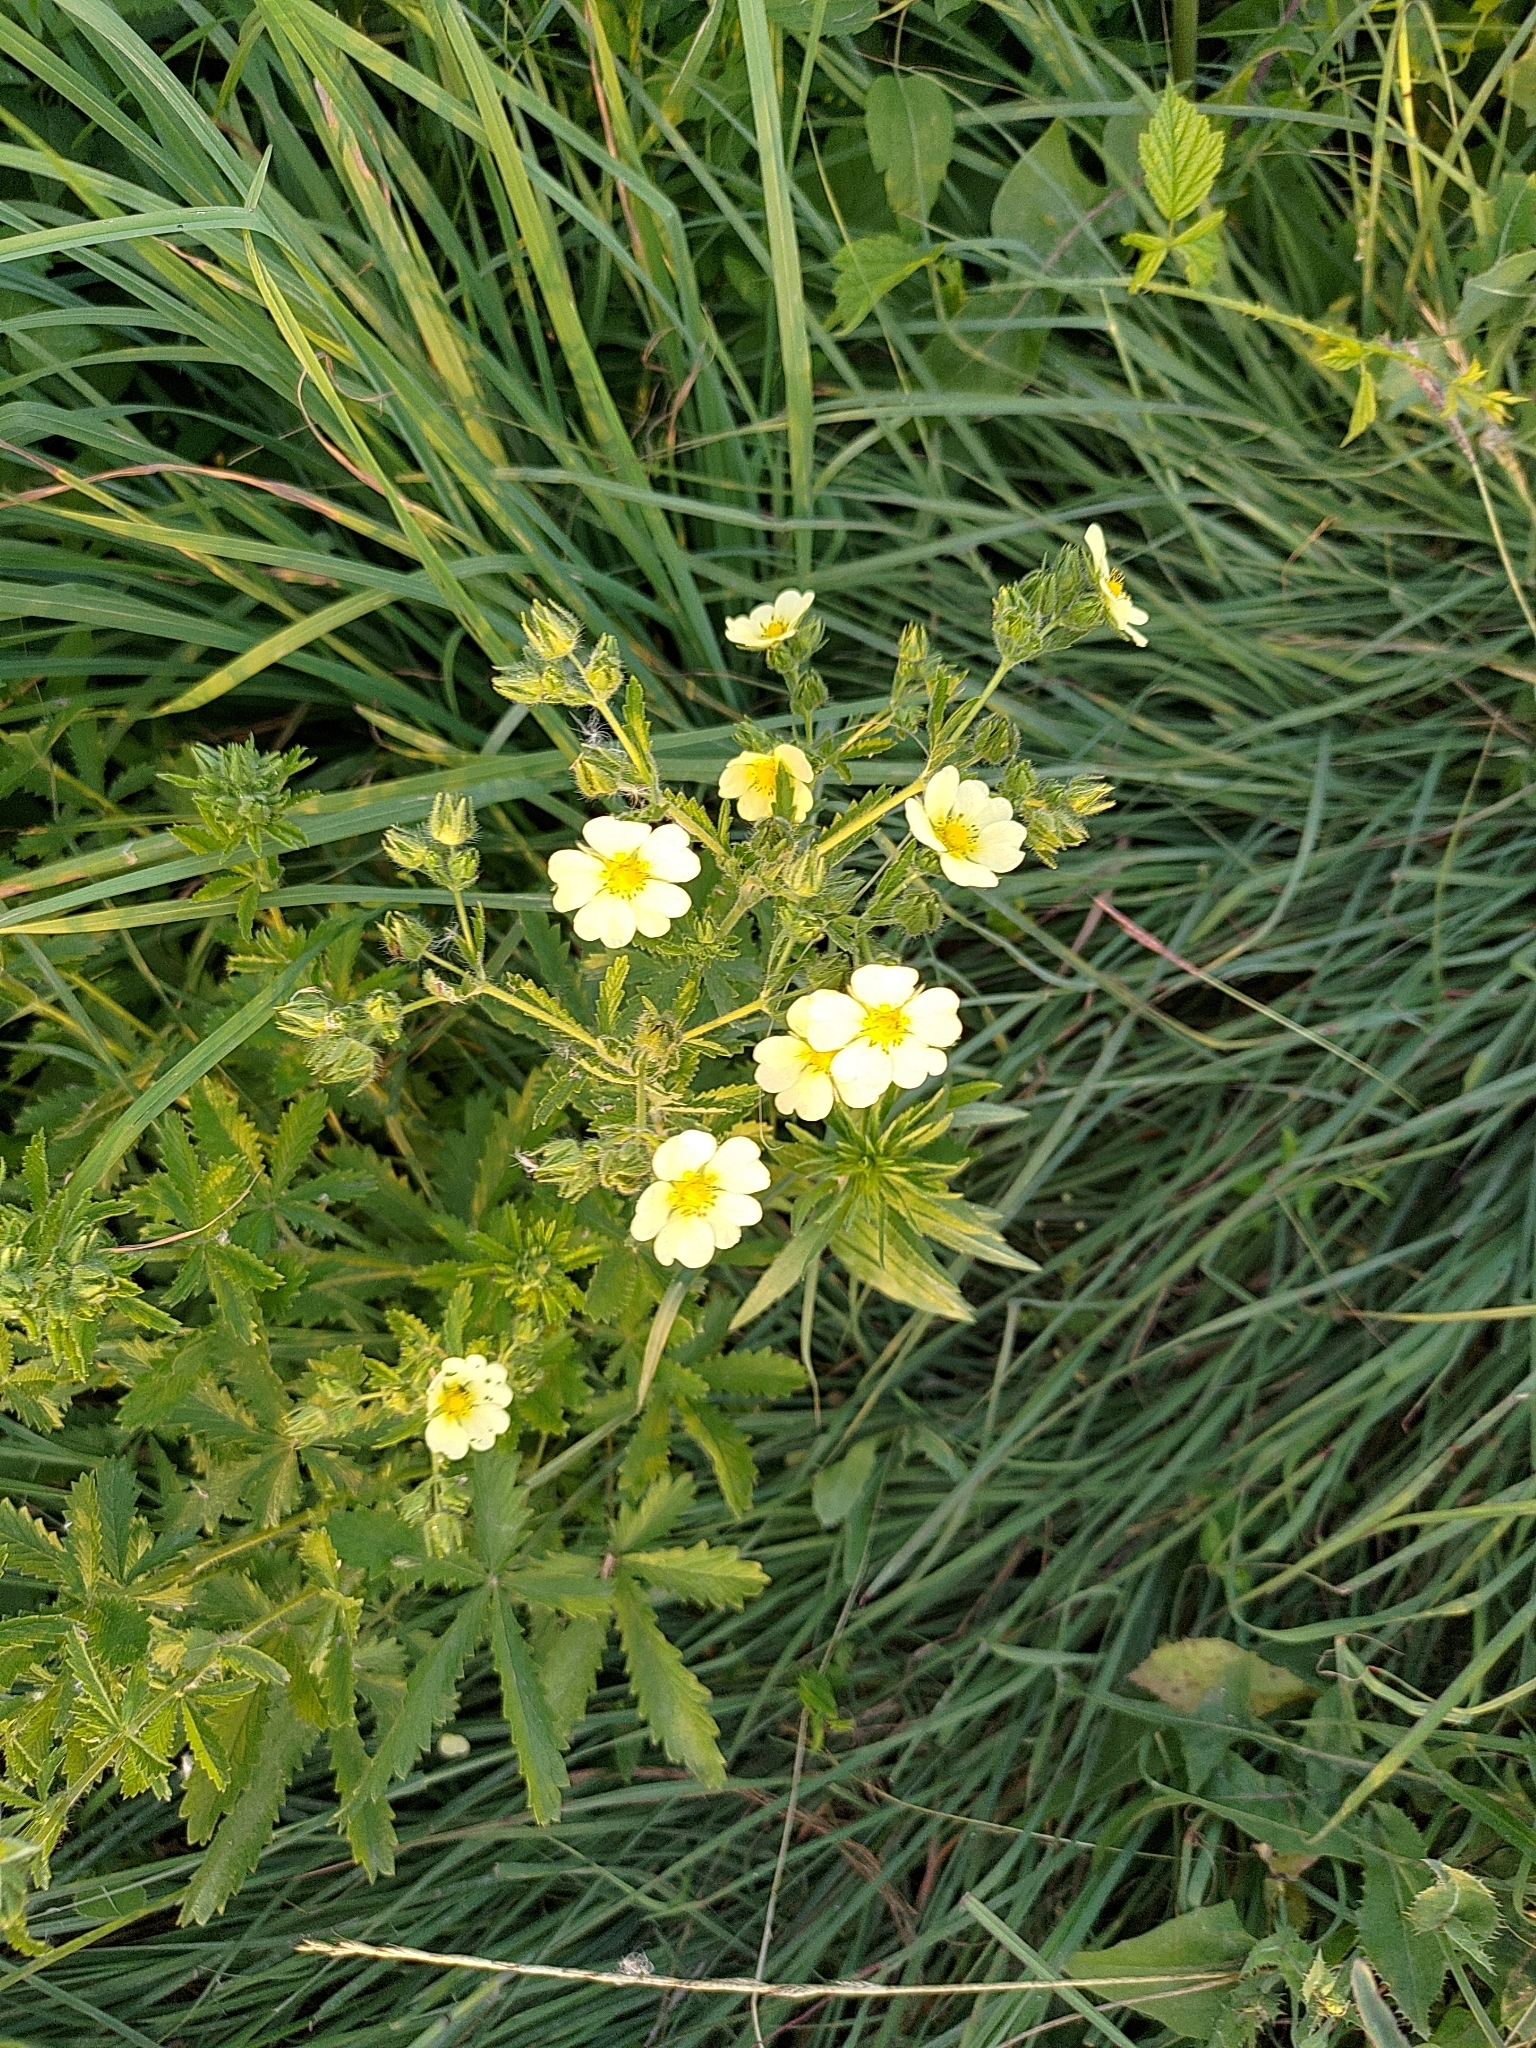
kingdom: Plantae
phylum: Tracheophyta
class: Magnoliopsida
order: Rosales
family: Rosaceae
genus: Potentilla
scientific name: Potentilla recta
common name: Sulphur cinquefoil
